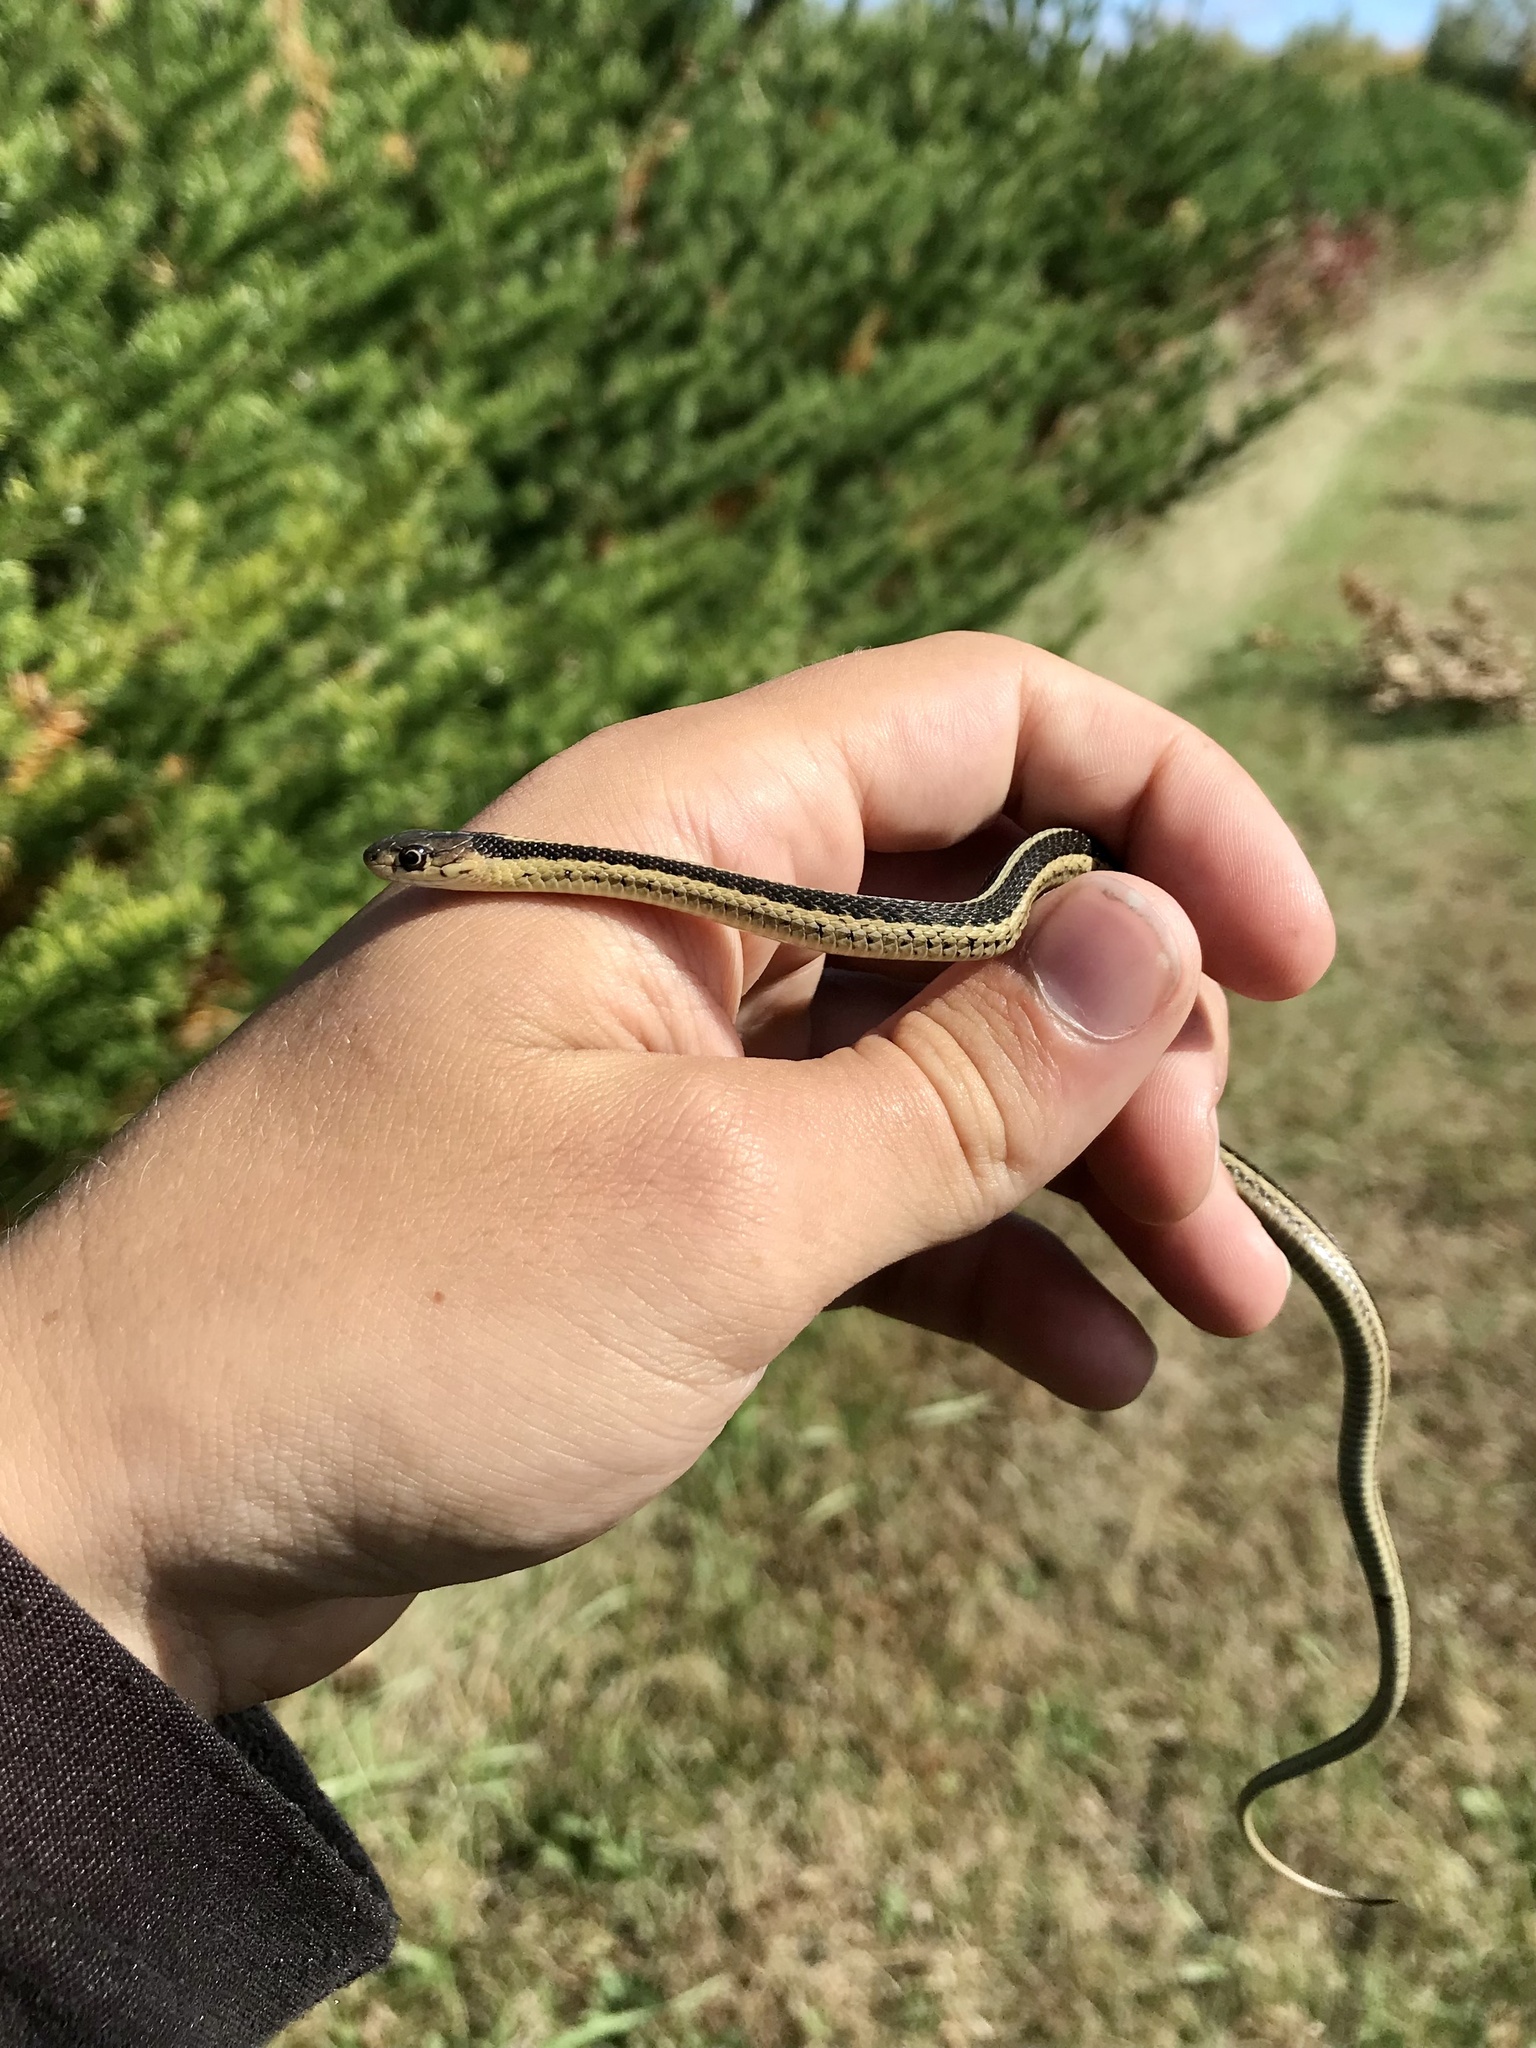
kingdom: Animalia
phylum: Chordata
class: Squamata
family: Colubridae
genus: Thamnophis
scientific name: Thamnophis sirtalis
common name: Common garter snake
